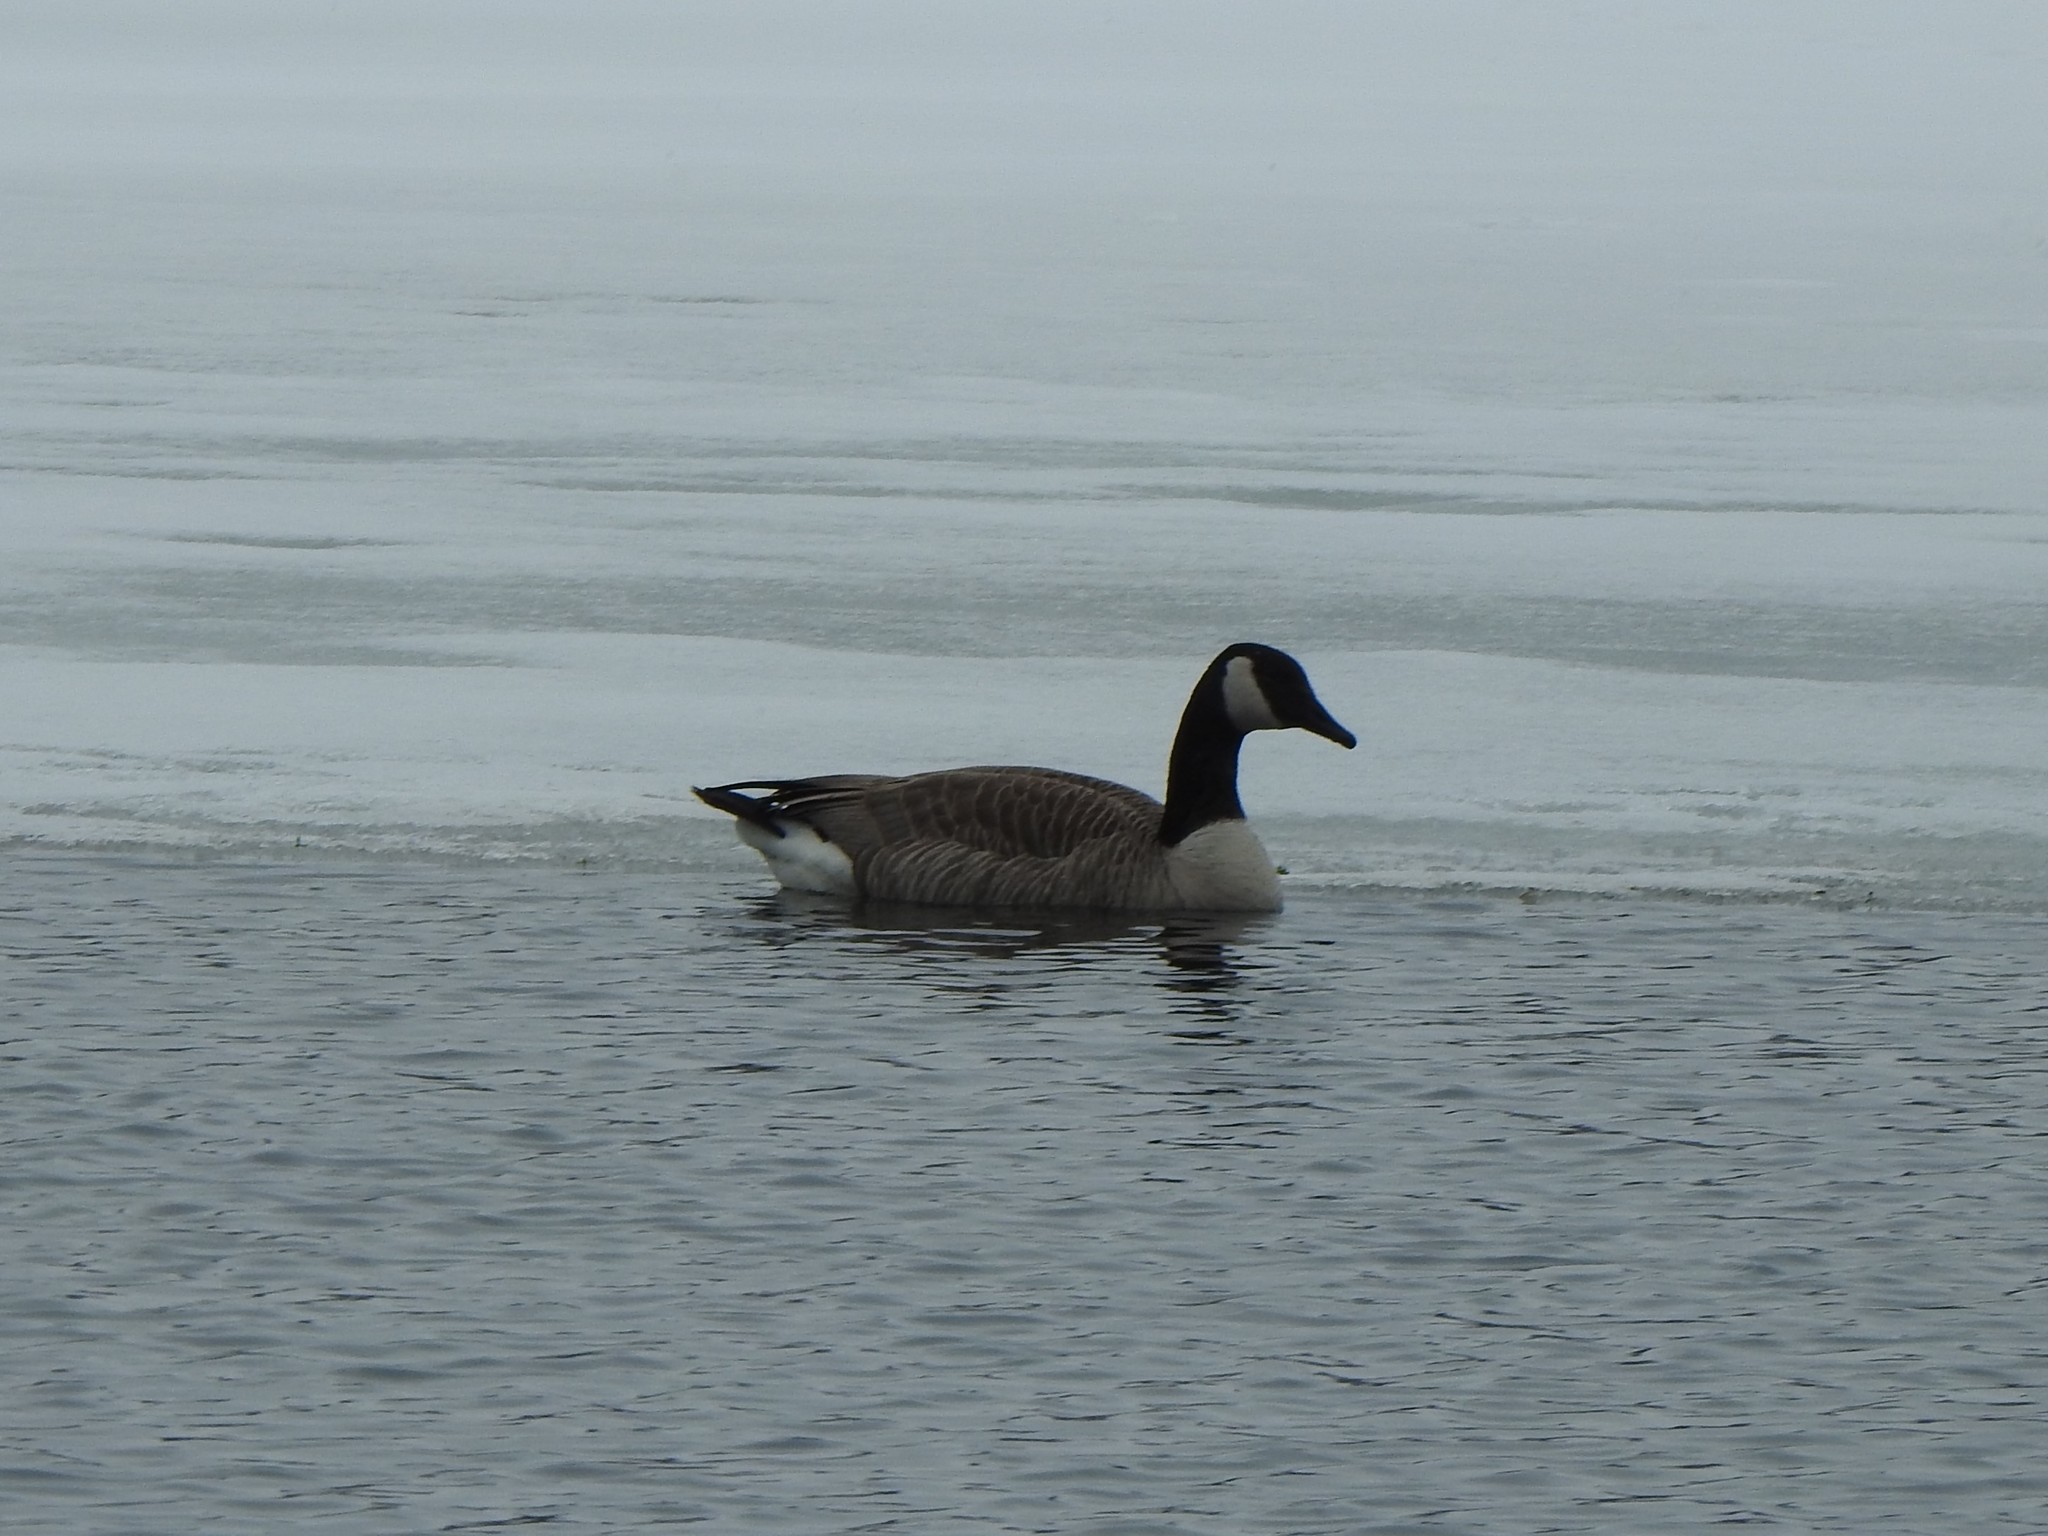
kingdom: Animalia
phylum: Chordata
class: Aves
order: Anseriformes
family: Anatidae
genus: Branta
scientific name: Branta canadensis
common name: Canada goose
